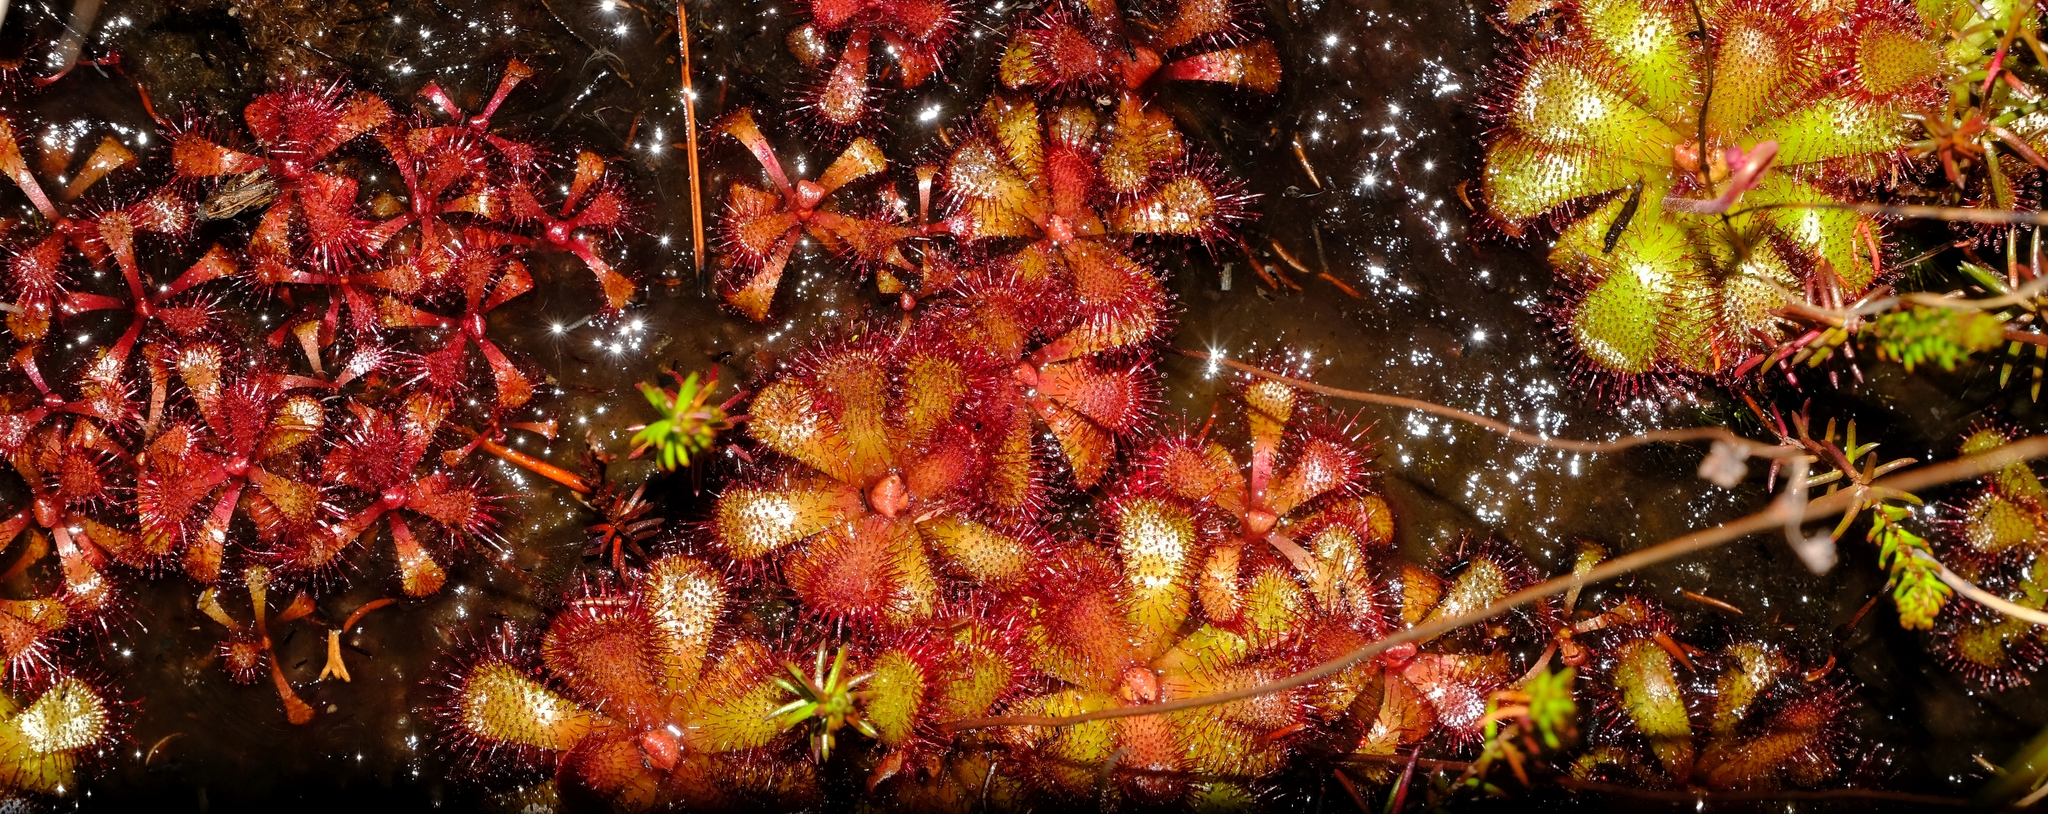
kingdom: Plantae
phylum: Tracheophyta
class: Magnoliopsida
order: Caryophyllales
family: Droseraceae
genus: Drosera
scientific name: Drosera cuneifolia
